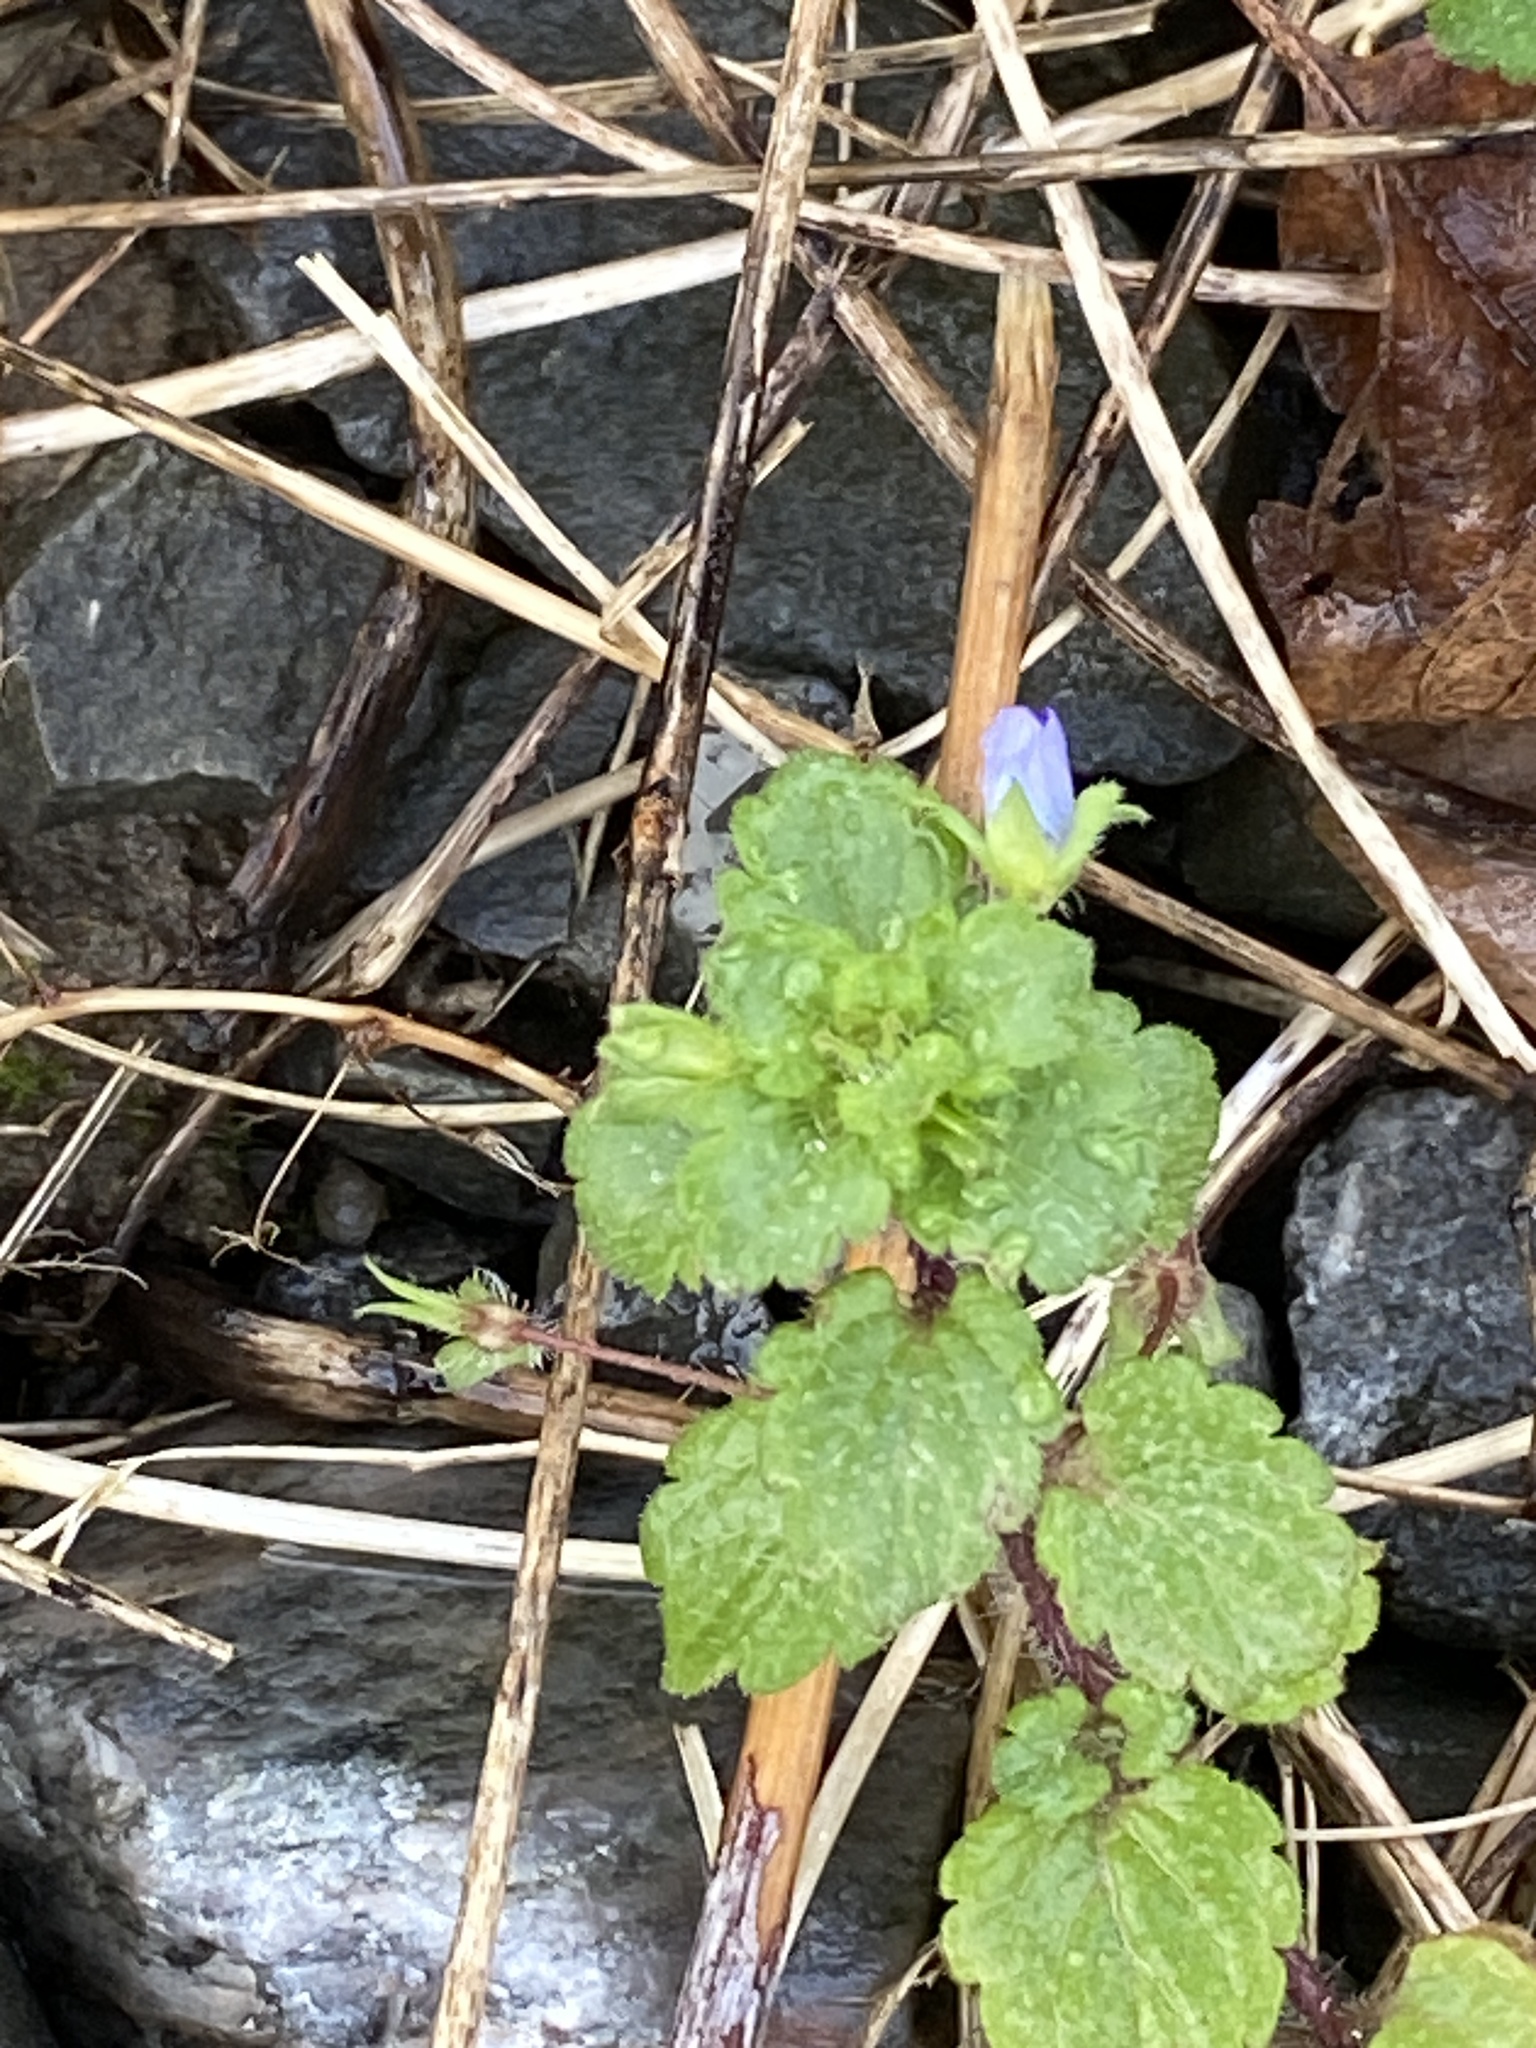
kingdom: Plantae
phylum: Tracheophyta
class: Magnoliopsida
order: Lamiales
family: Plantaginaceae
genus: Veronica
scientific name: Veronica persica
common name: Common field-speedwell
